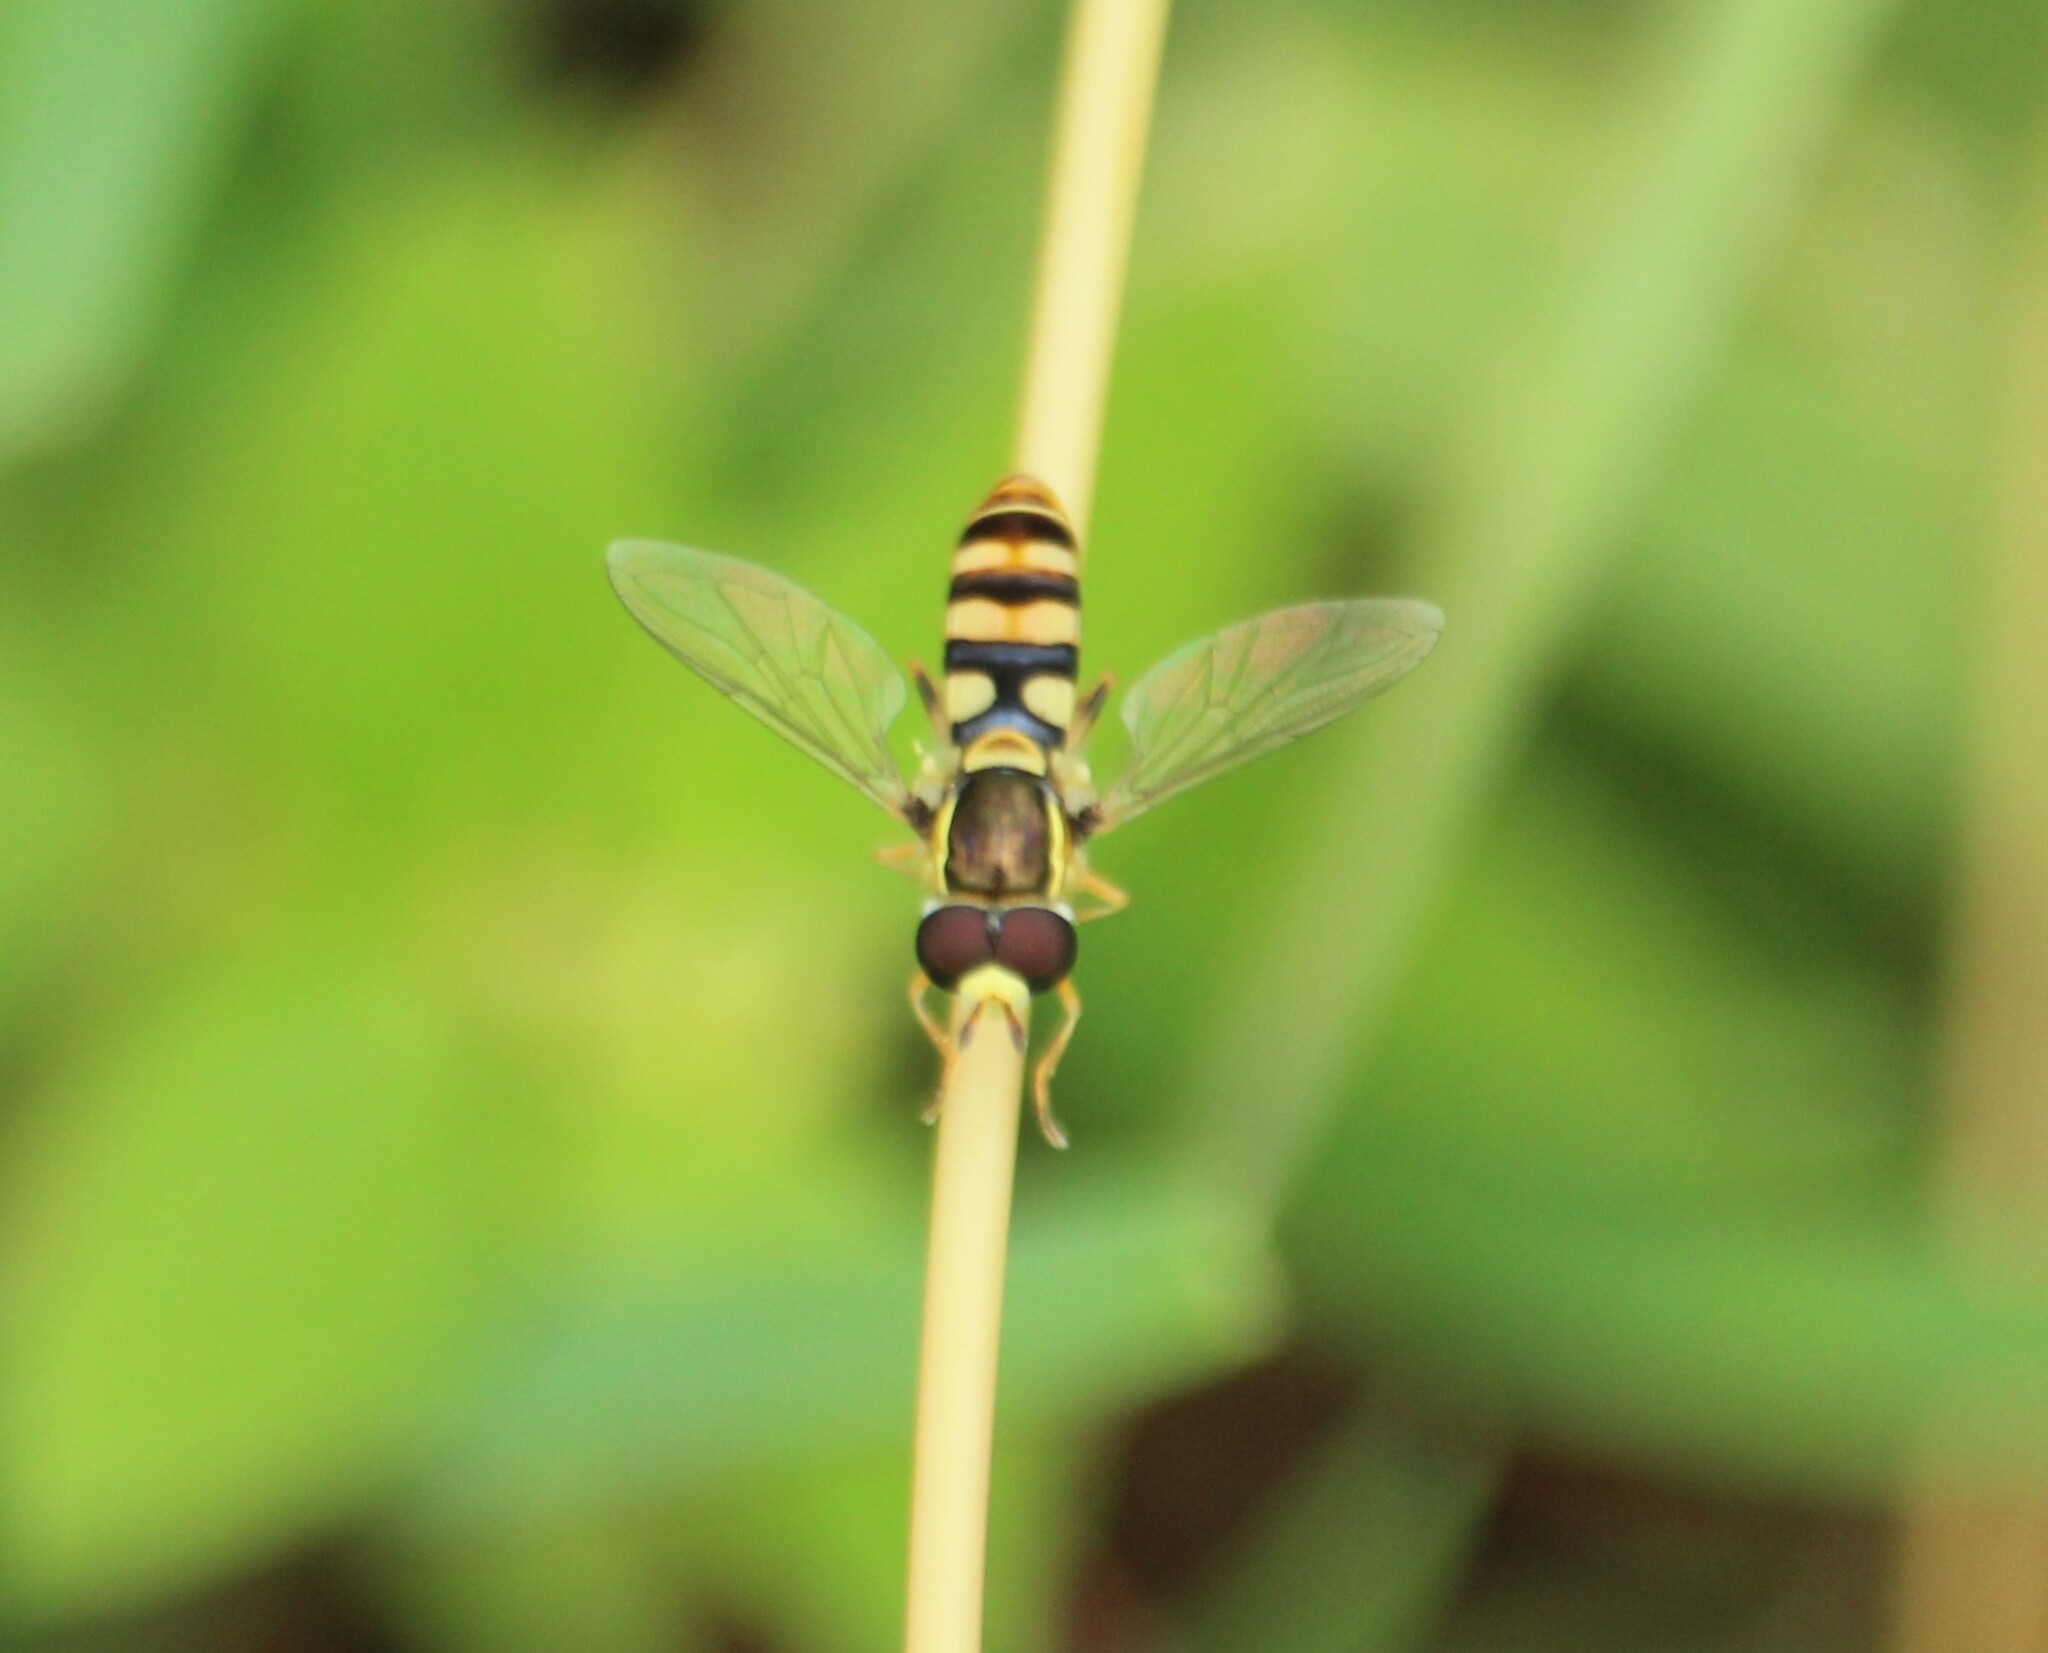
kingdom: Animalia
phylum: Arthropoda
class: Insecta
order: Diptera
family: Syrphidae
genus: Ischiodon
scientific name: Ischiodon scutellaris
